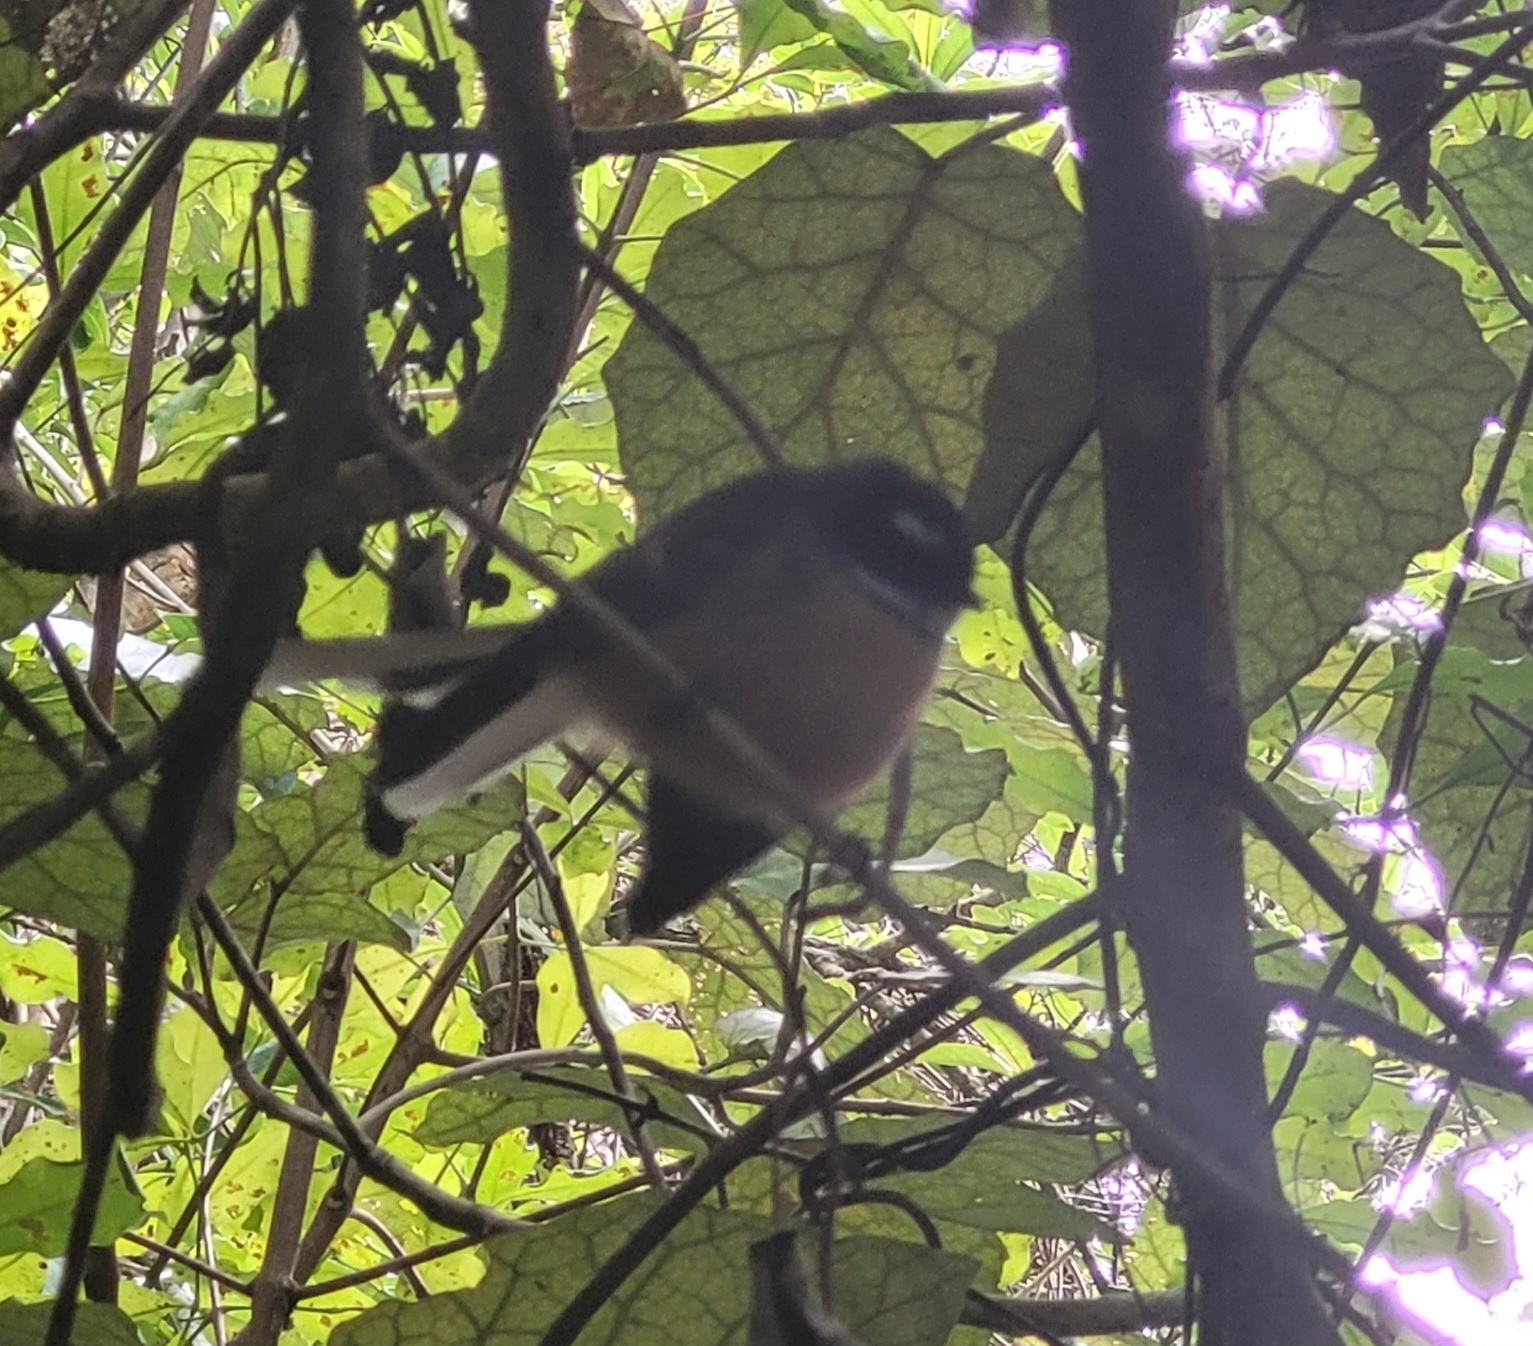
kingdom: Animalia
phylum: Chordata
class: Aves
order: Passeriformes
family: Rhipiduridae
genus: Rhipidura
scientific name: Rhipidura fuliginosa
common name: New zealand fantail
